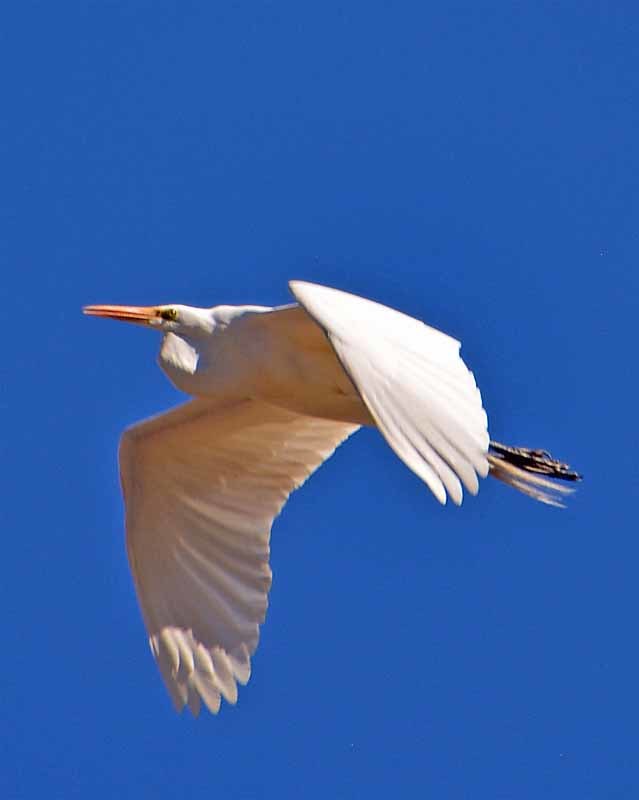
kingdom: Animalia
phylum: Chordata
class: Aves
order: Pelecaniformes
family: Ardeidae
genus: Ardea
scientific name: Ardea alba
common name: Great egret
